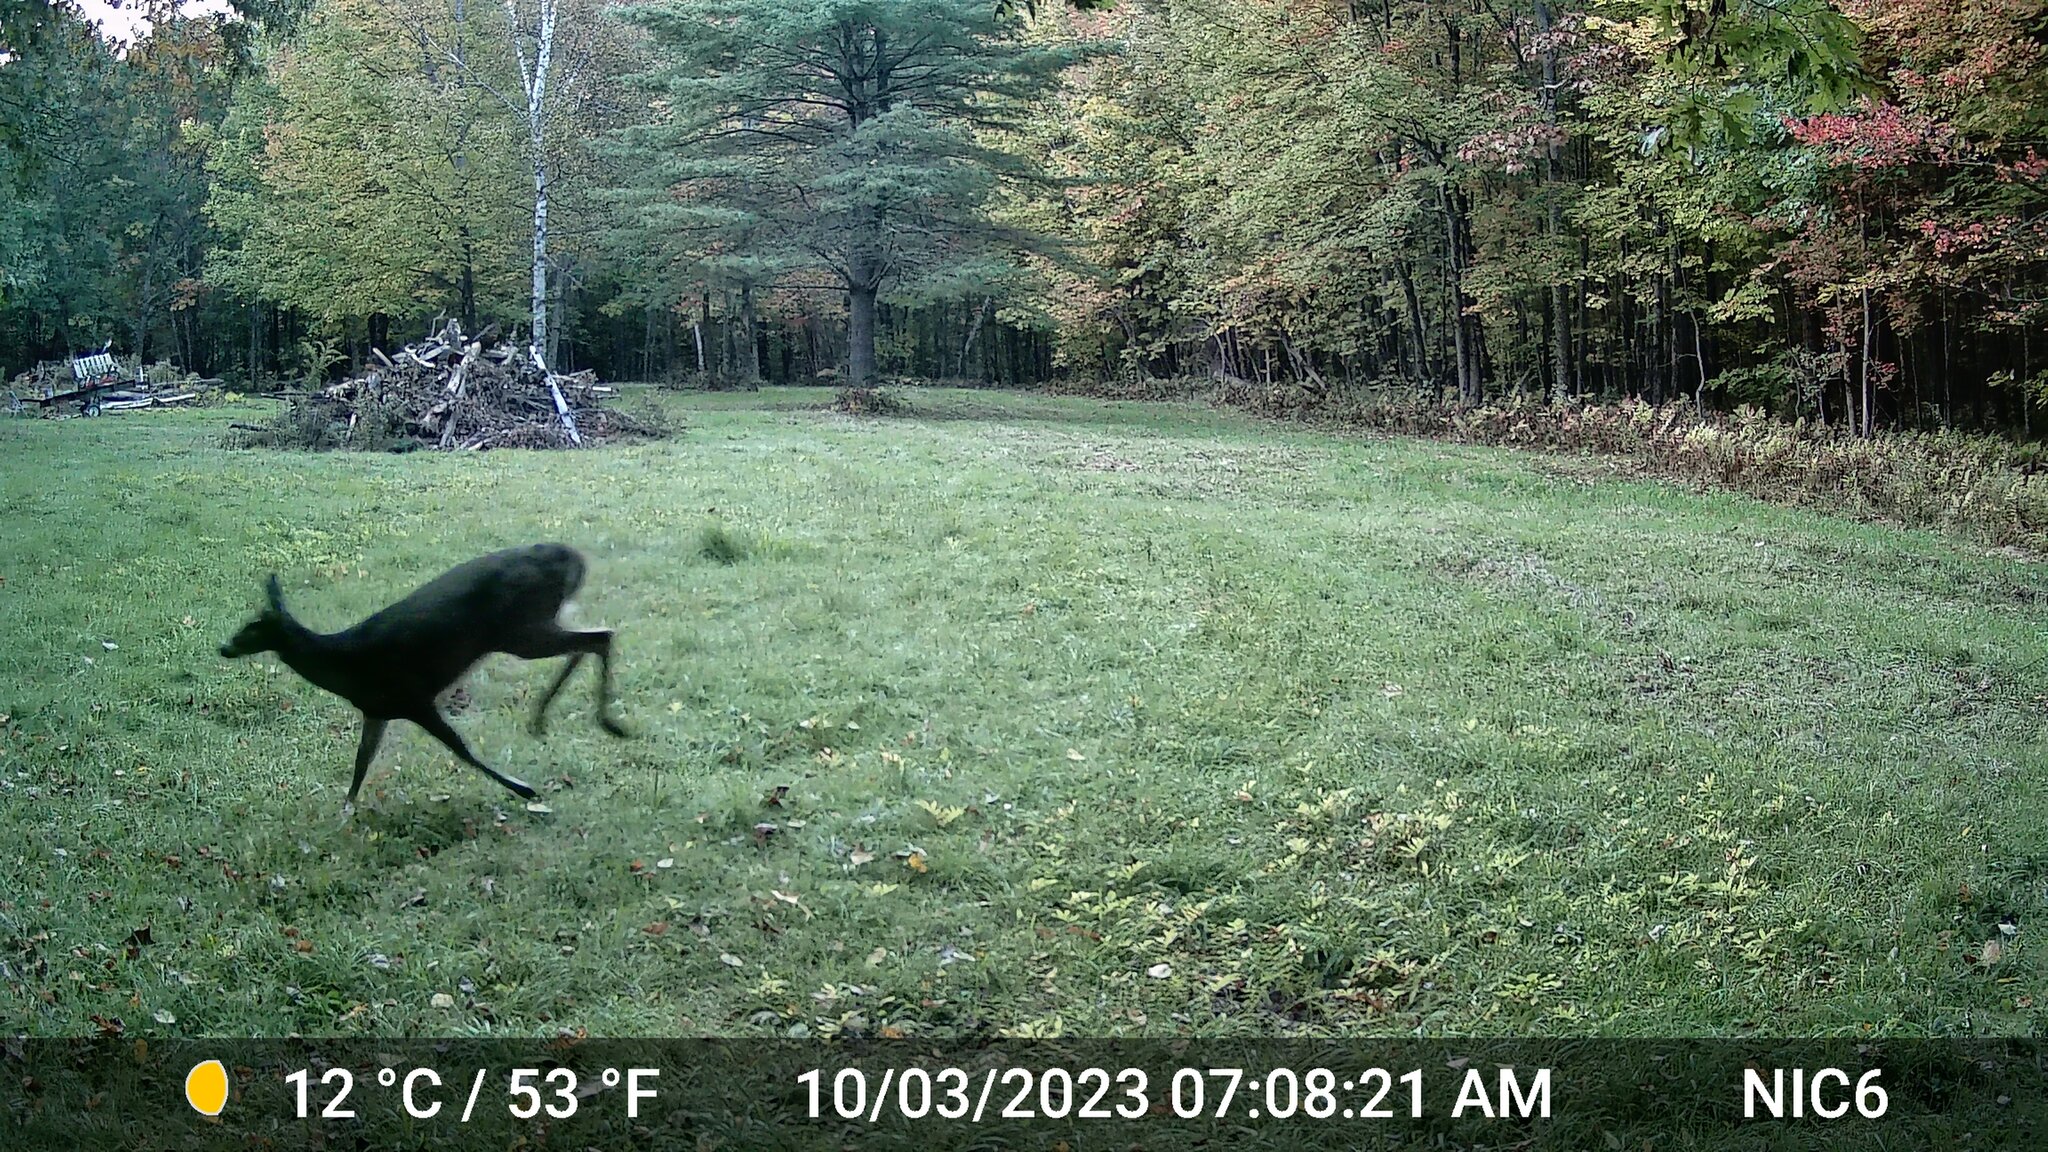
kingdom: Animalia
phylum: Chordata
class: Mammalia
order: Artiodactyla
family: Cervidae
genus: Odocoileus
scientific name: Odocoileus virginianus
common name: White-tailed deer
